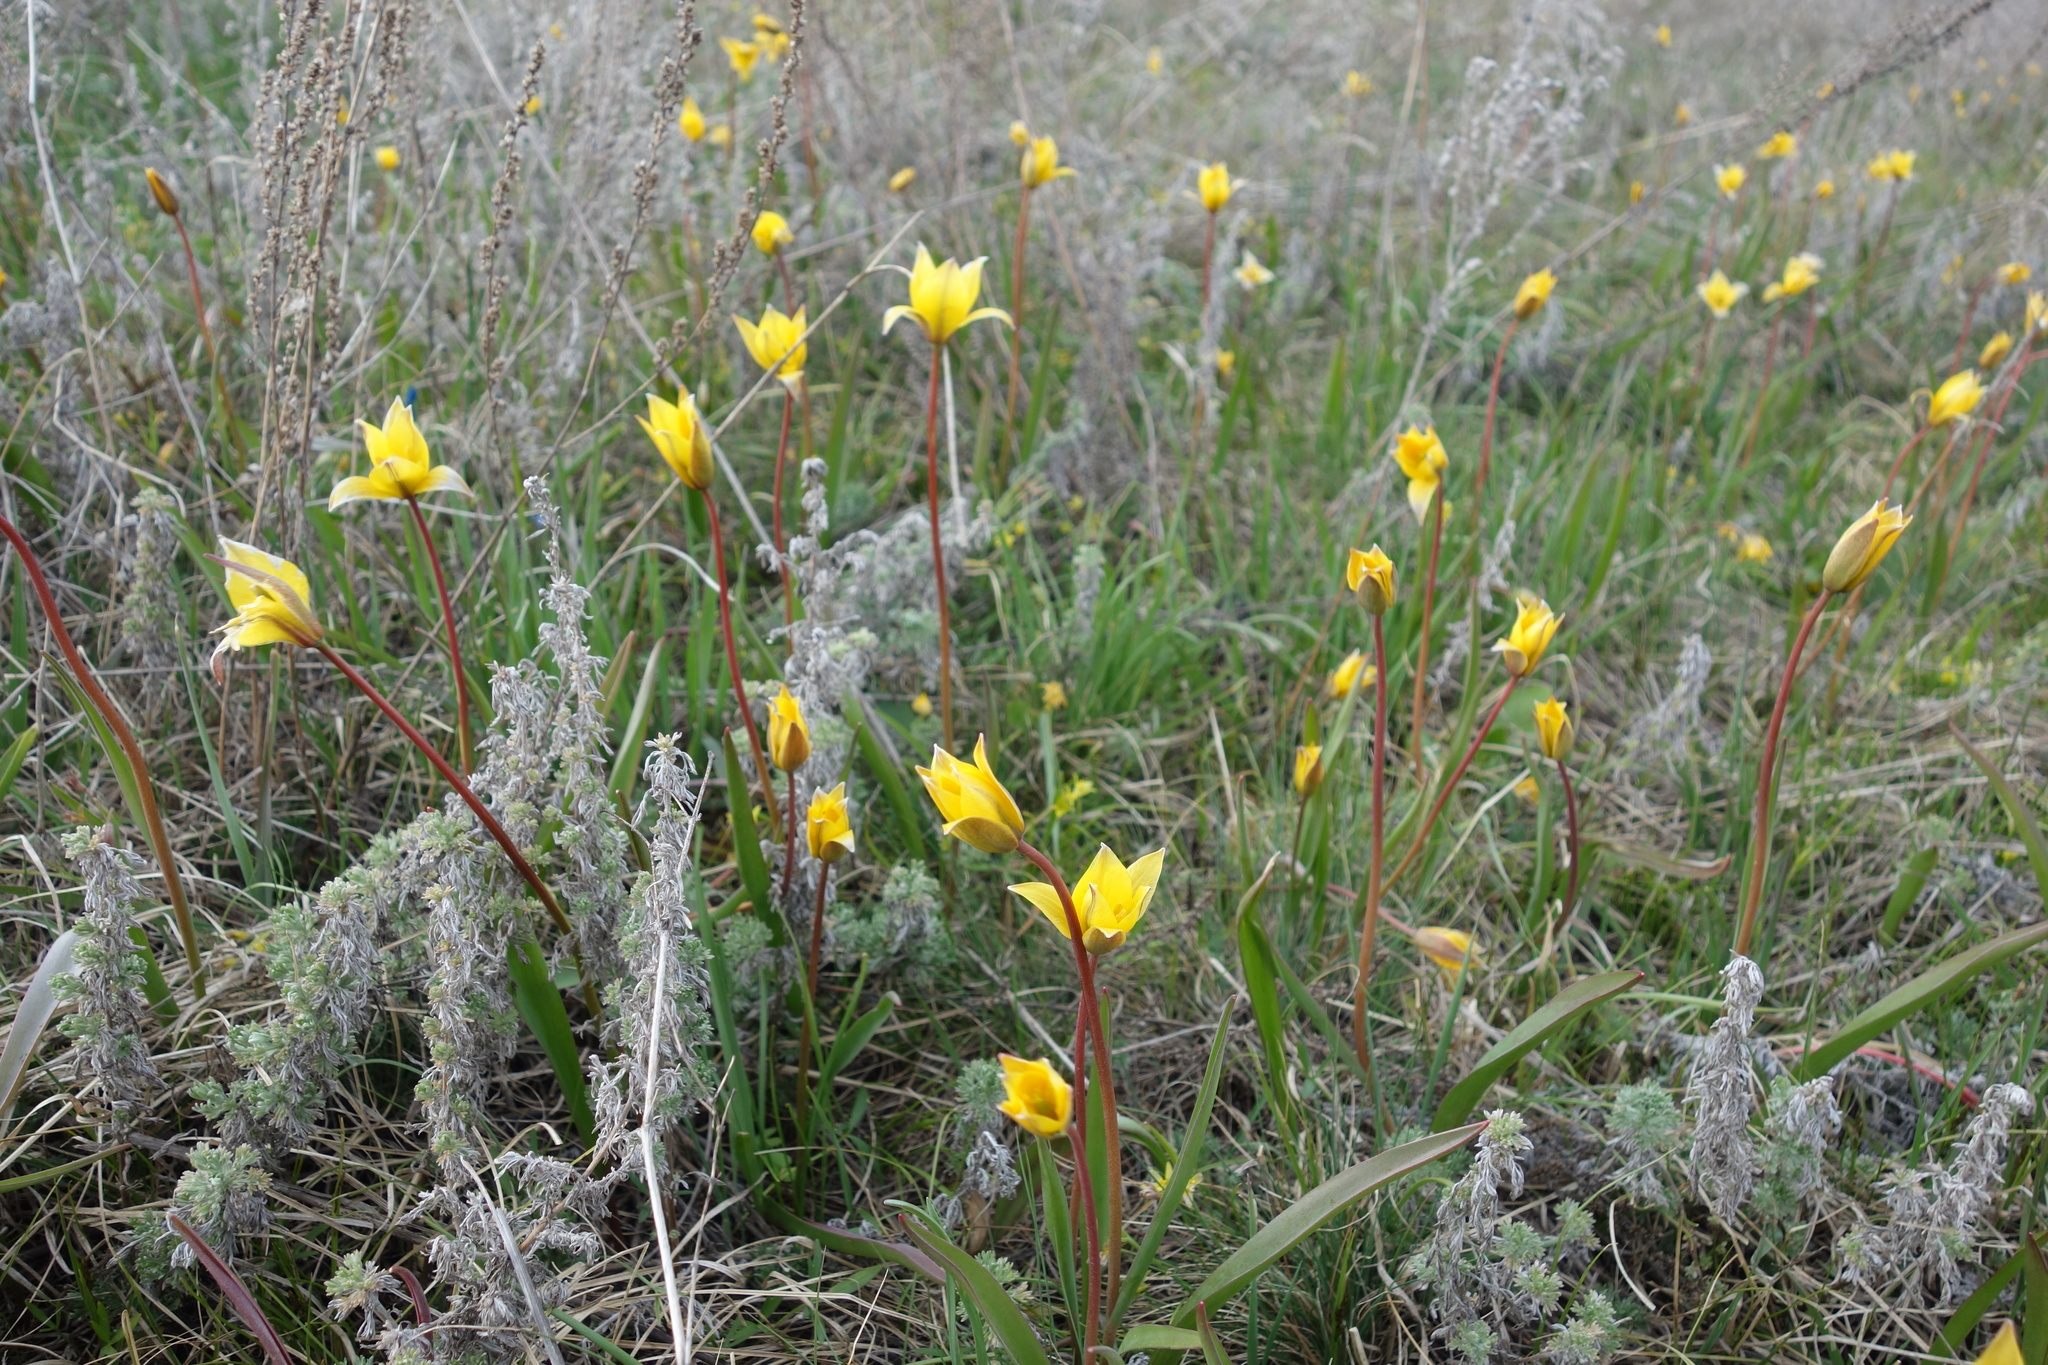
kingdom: Plantae
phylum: Tracheophyta
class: Liliopsida
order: Liliales
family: Liliaceae
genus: Tulipa
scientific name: Tulipa sylvestris
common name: Wild tulip
